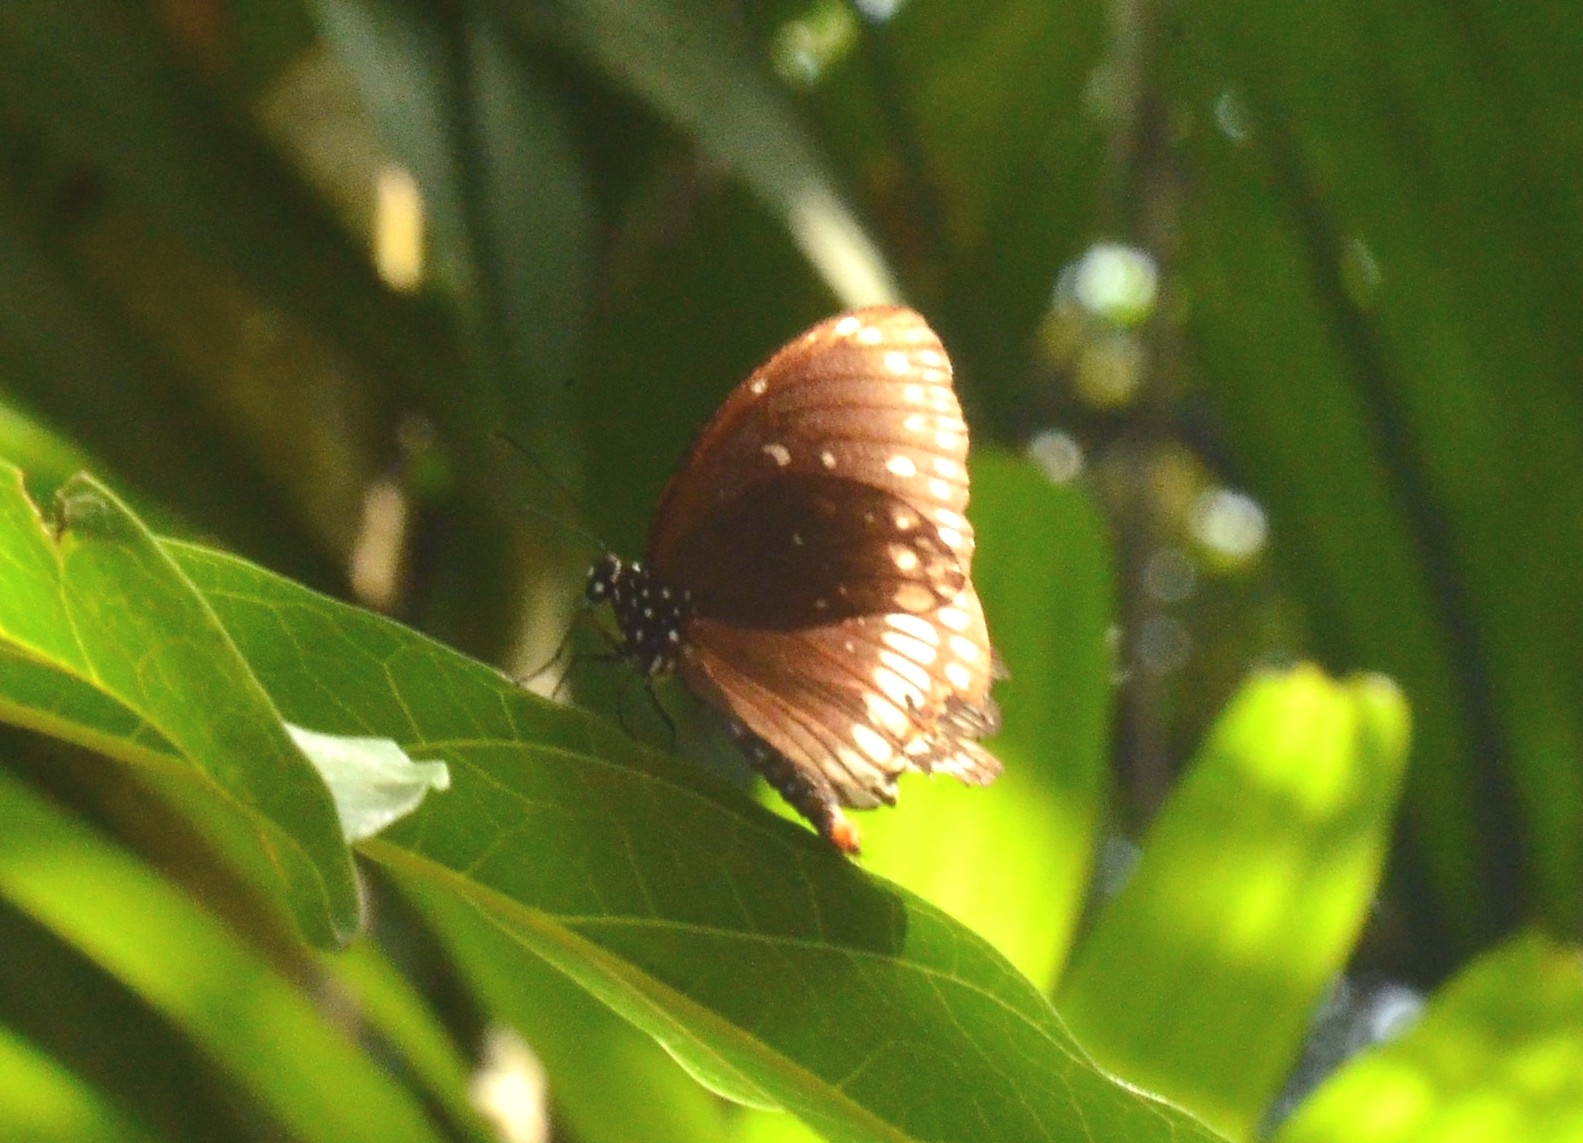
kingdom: Animalia
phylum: Arthropoda
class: Insecta
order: Lepidoptera
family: Nymphalidae
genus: Euploea
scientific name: Euploea core
